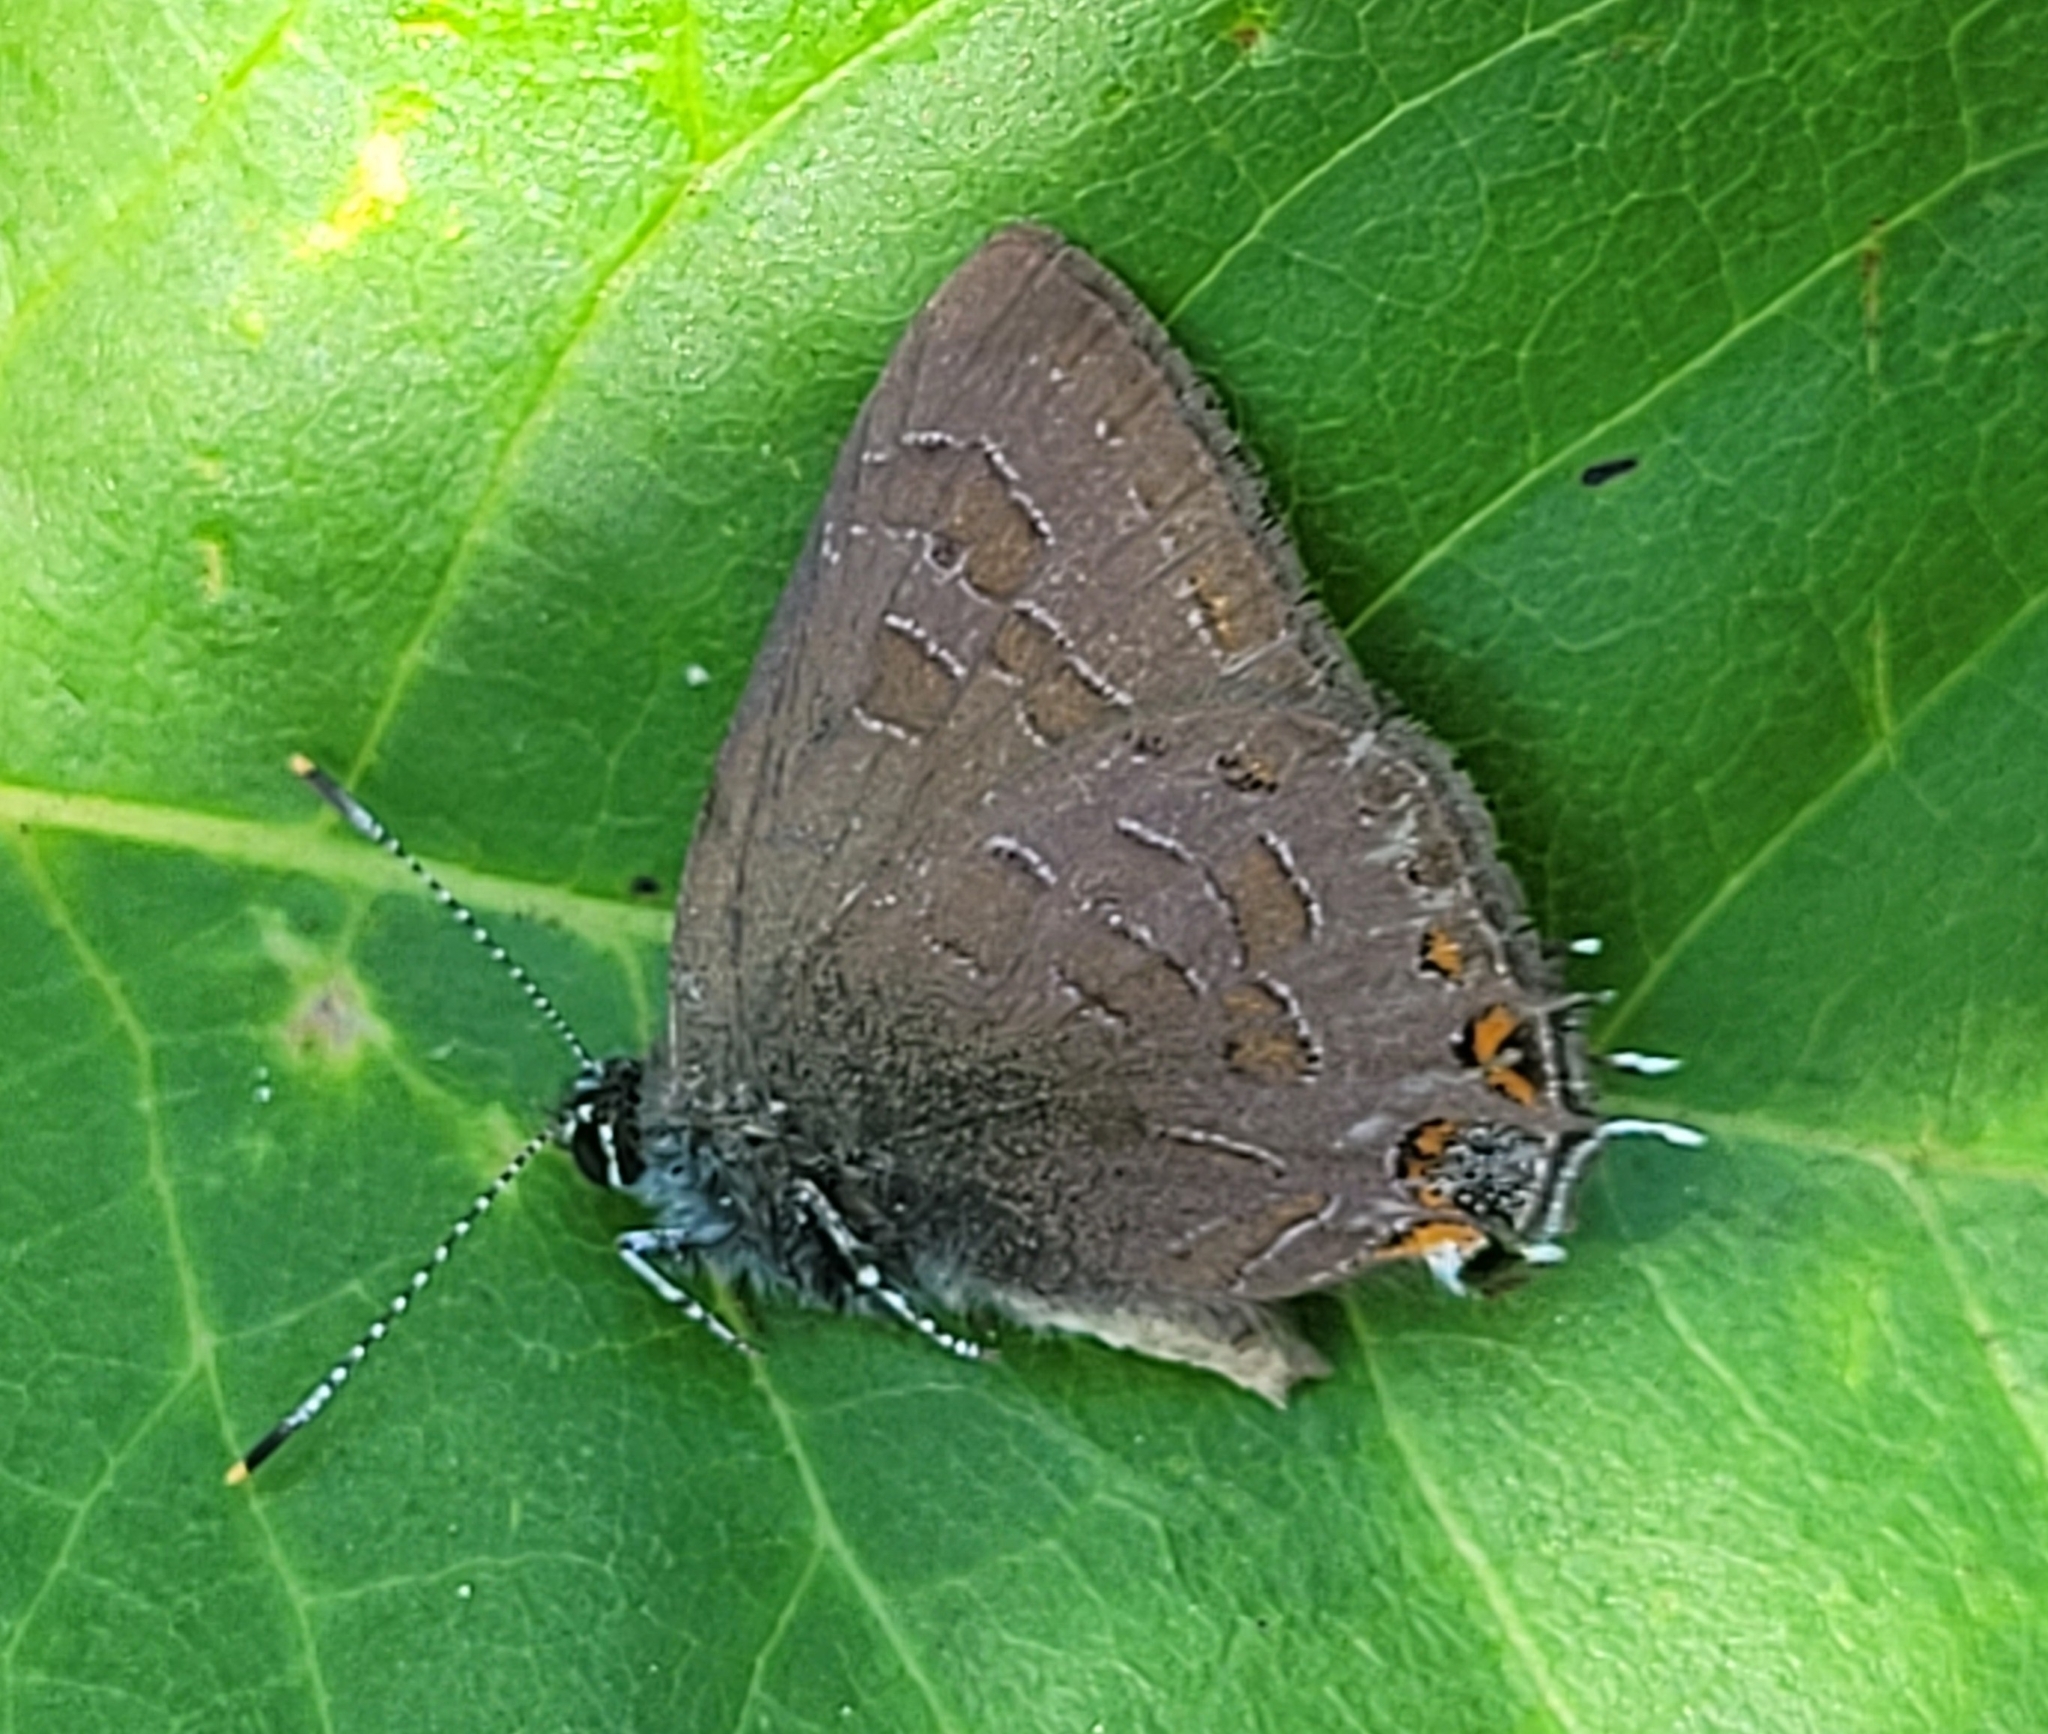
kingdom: Animalia
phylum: Arthropoda
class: Insecta
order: Lepidoptera
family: Lycaenidae
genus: Satyrium
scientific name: Satyrium liparops
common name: Striped hairstreak
